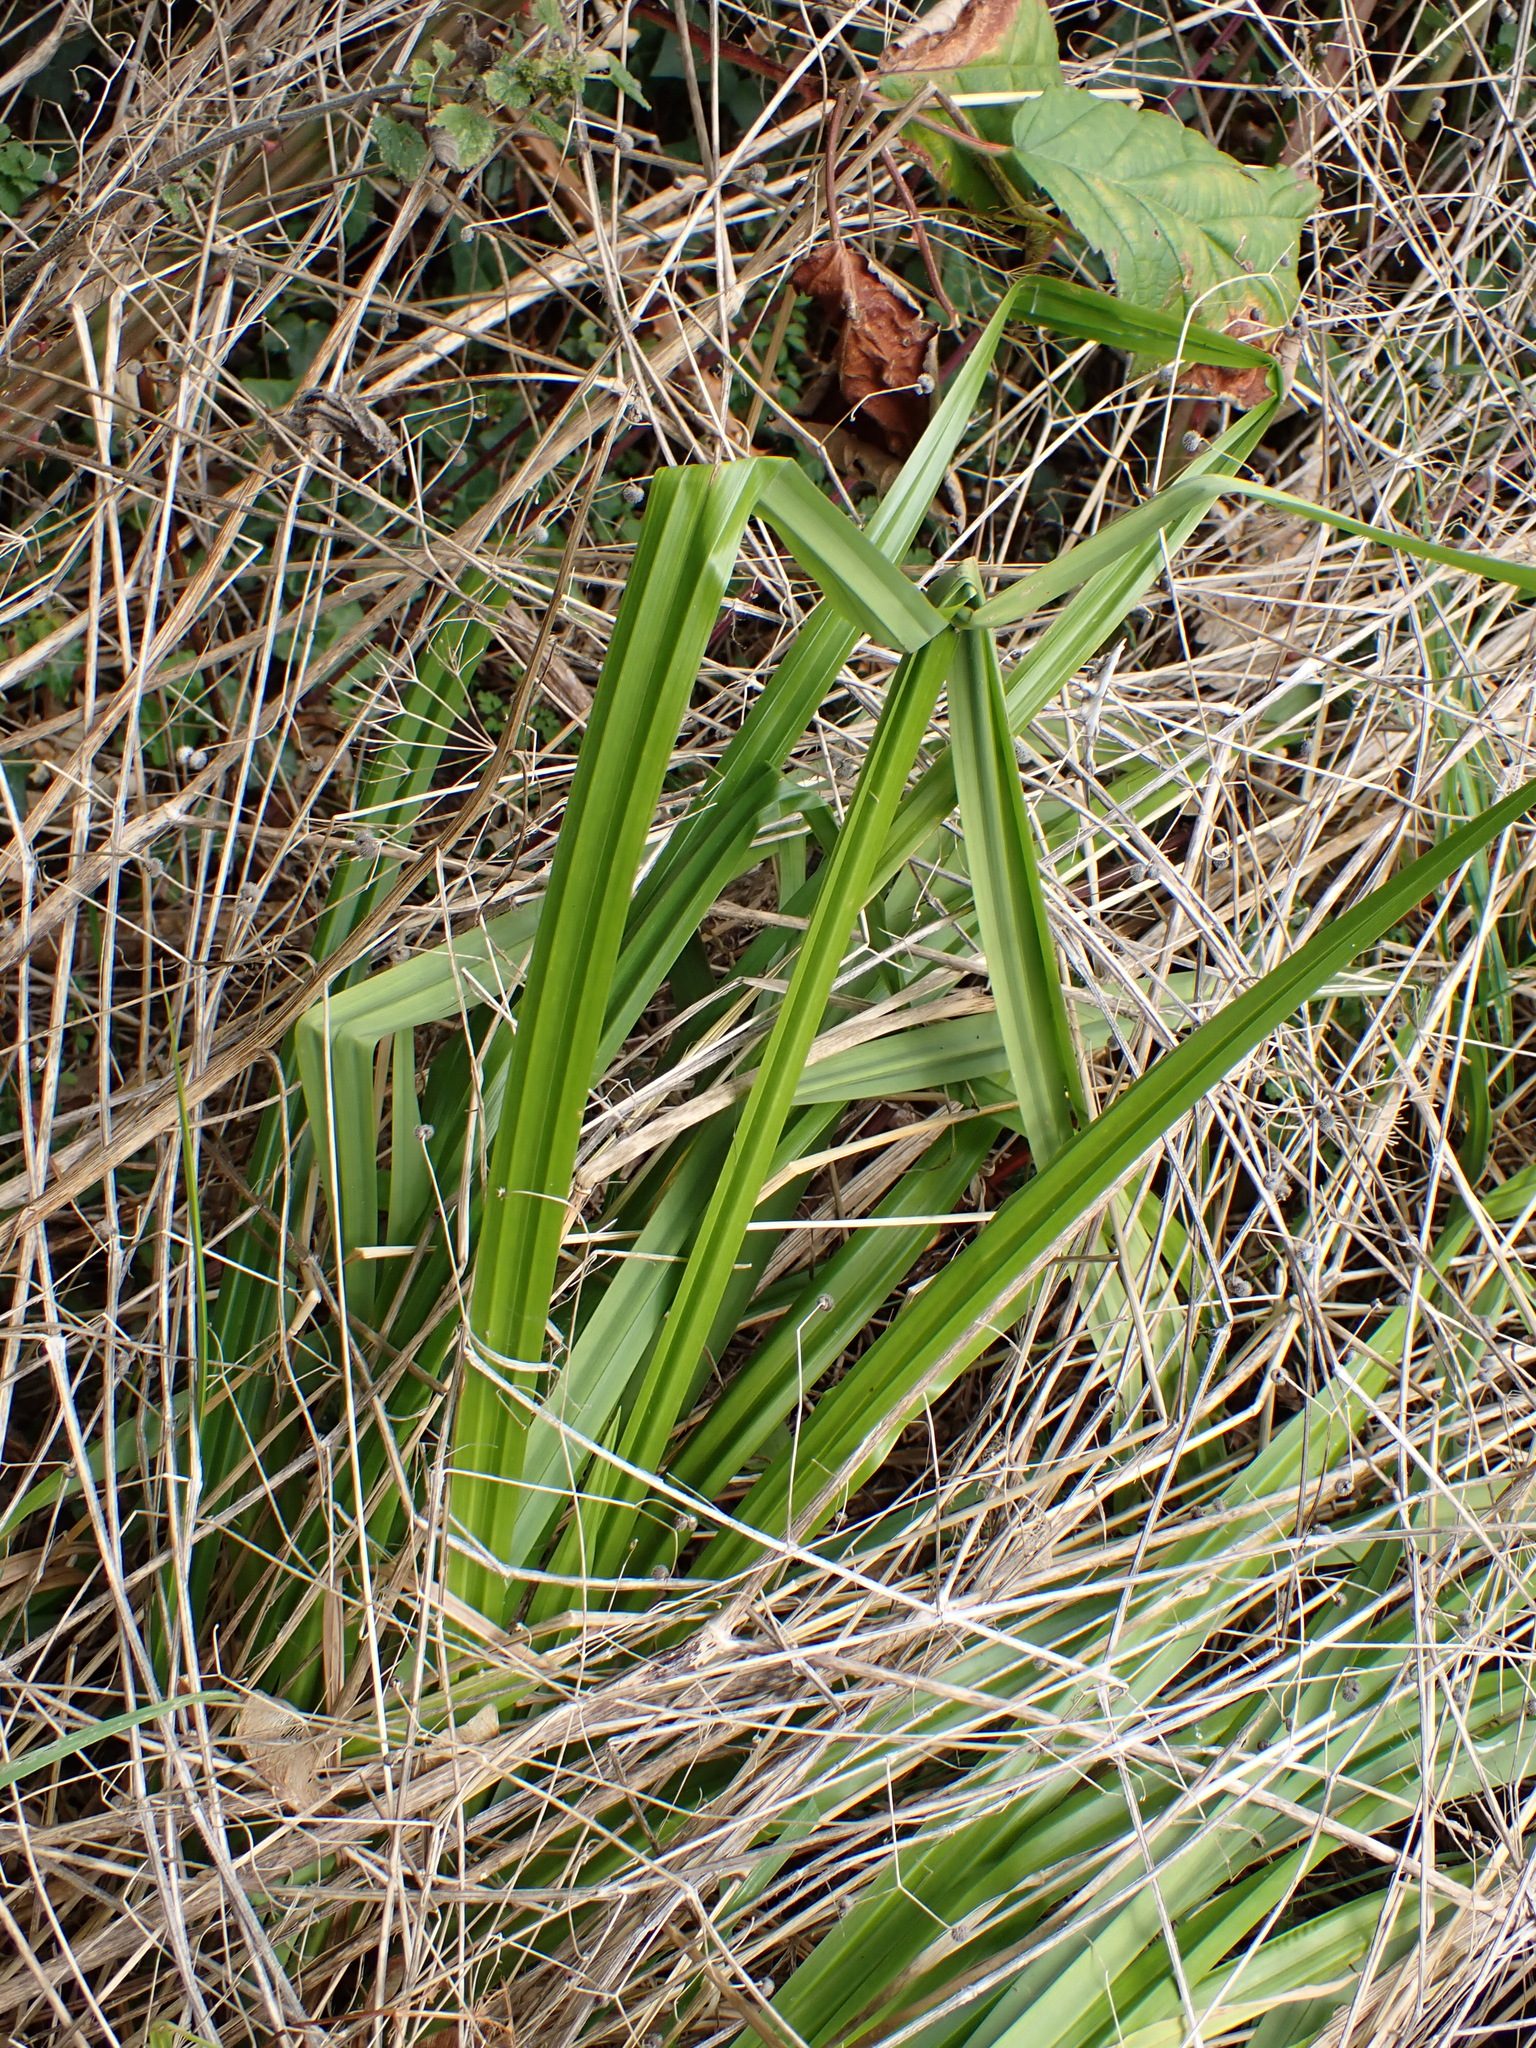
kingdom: Plantae
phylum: Tracheophyta
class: Liliopsida
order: Poales
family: Cyperaceae
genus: Carex
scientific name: Carex pendula
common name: Pendulous sedge
